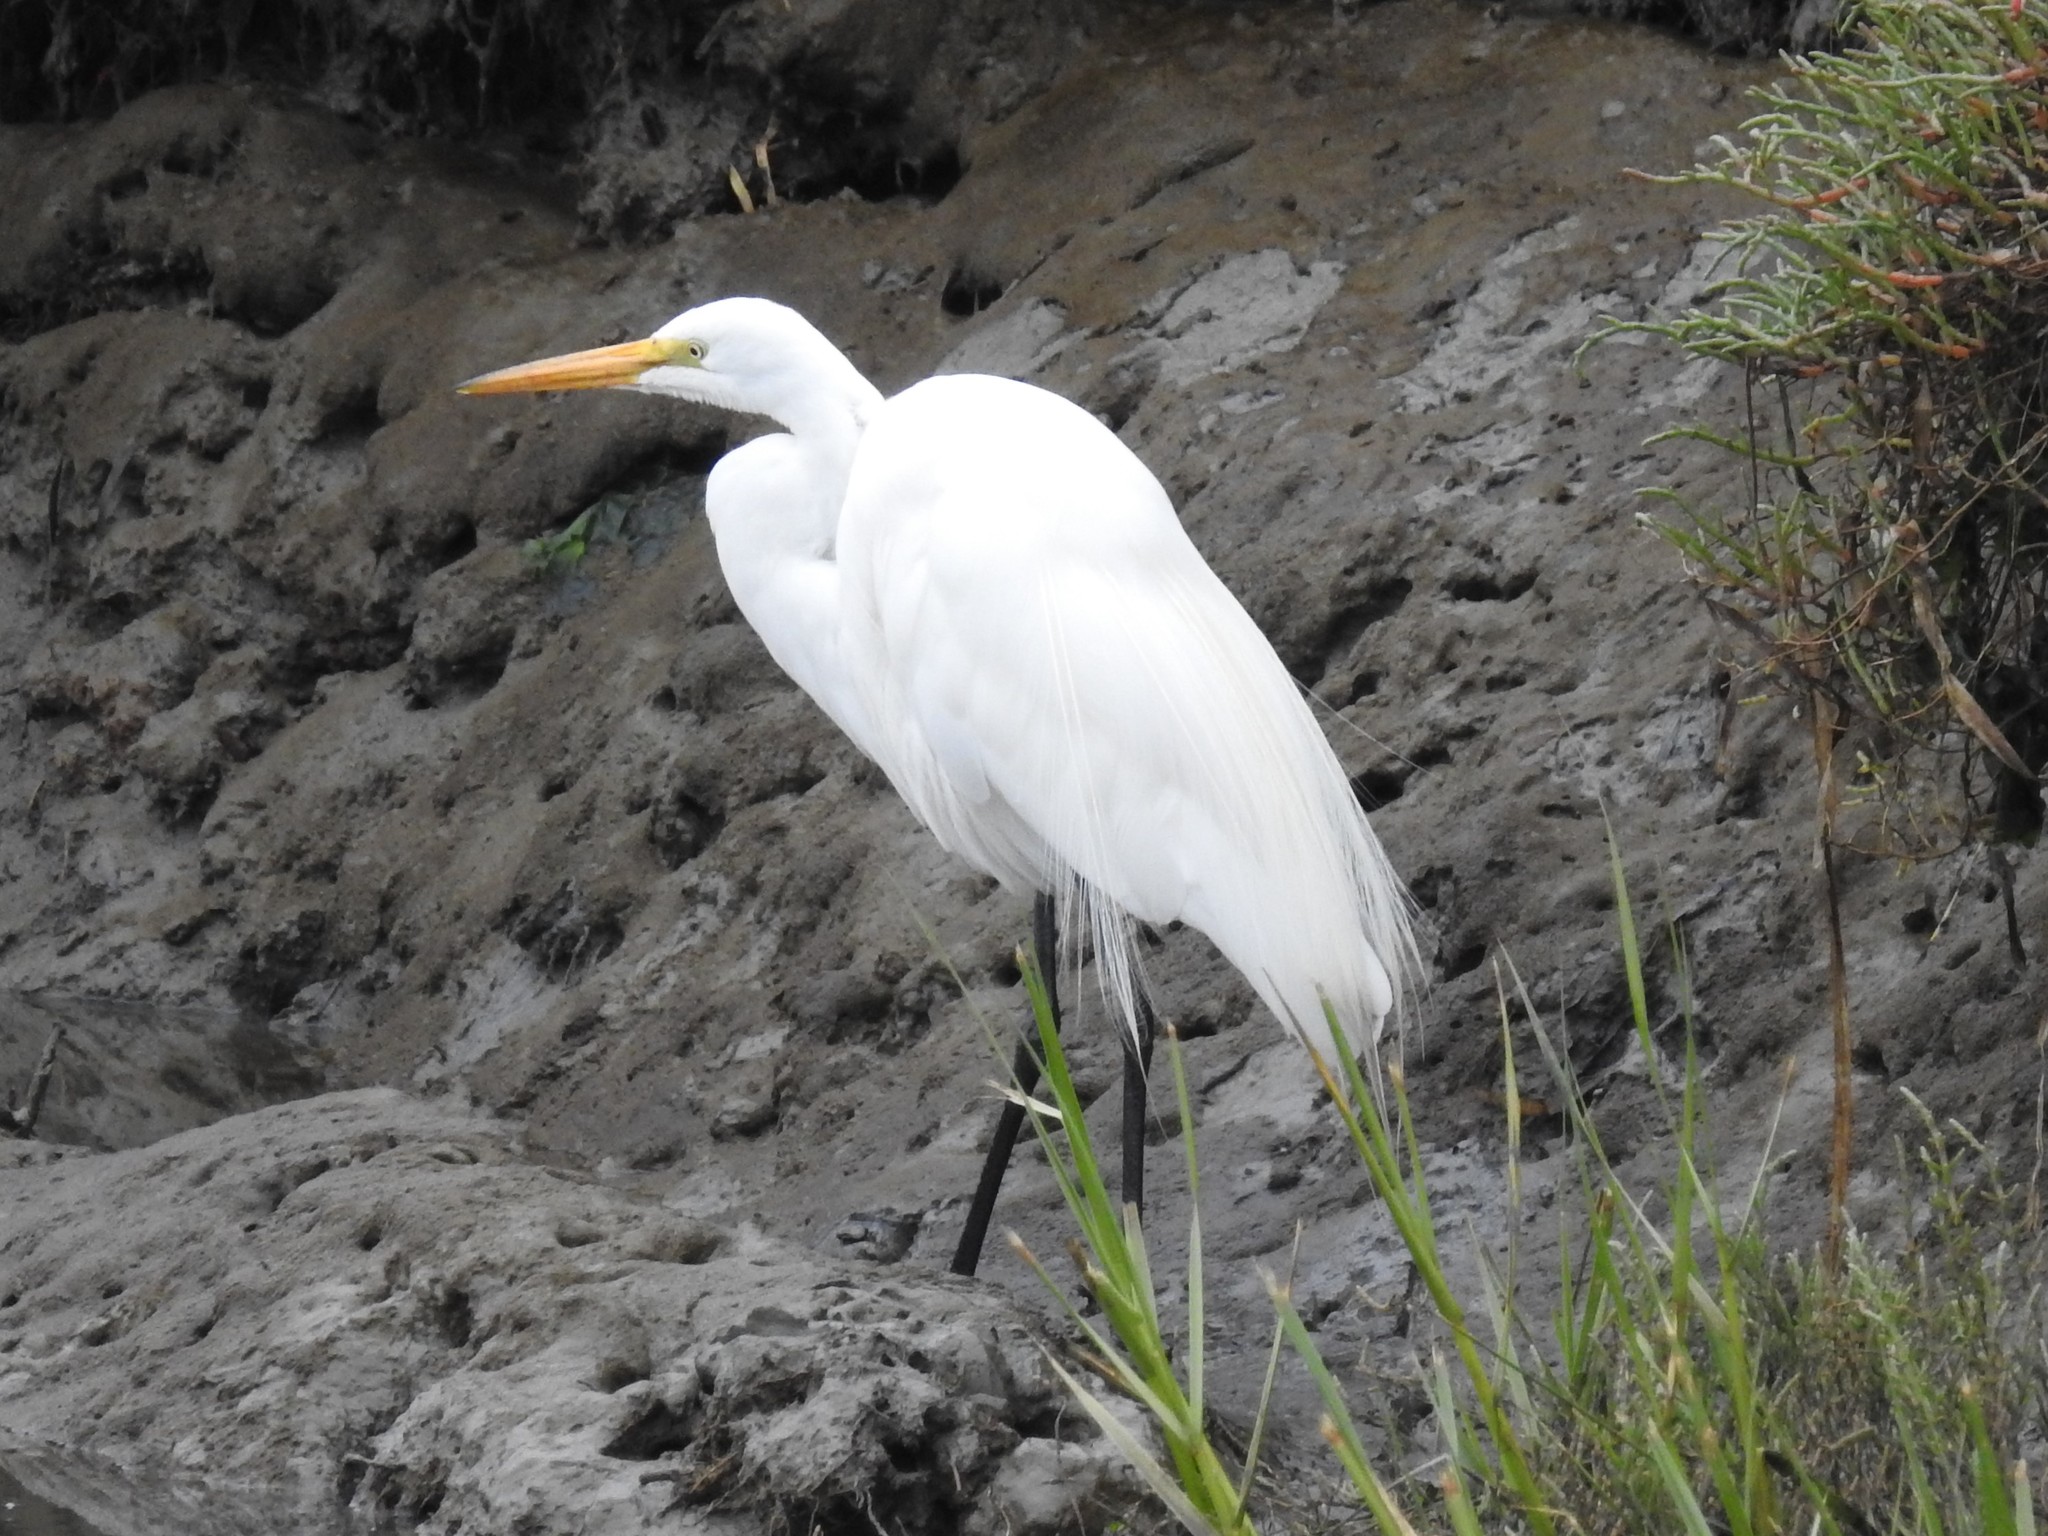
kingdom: Animalia
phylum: Chordata
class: Aves
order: Pelecaniformes
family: Ardeidae
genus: Ardea
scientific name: Ardea alba
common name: Great egret
